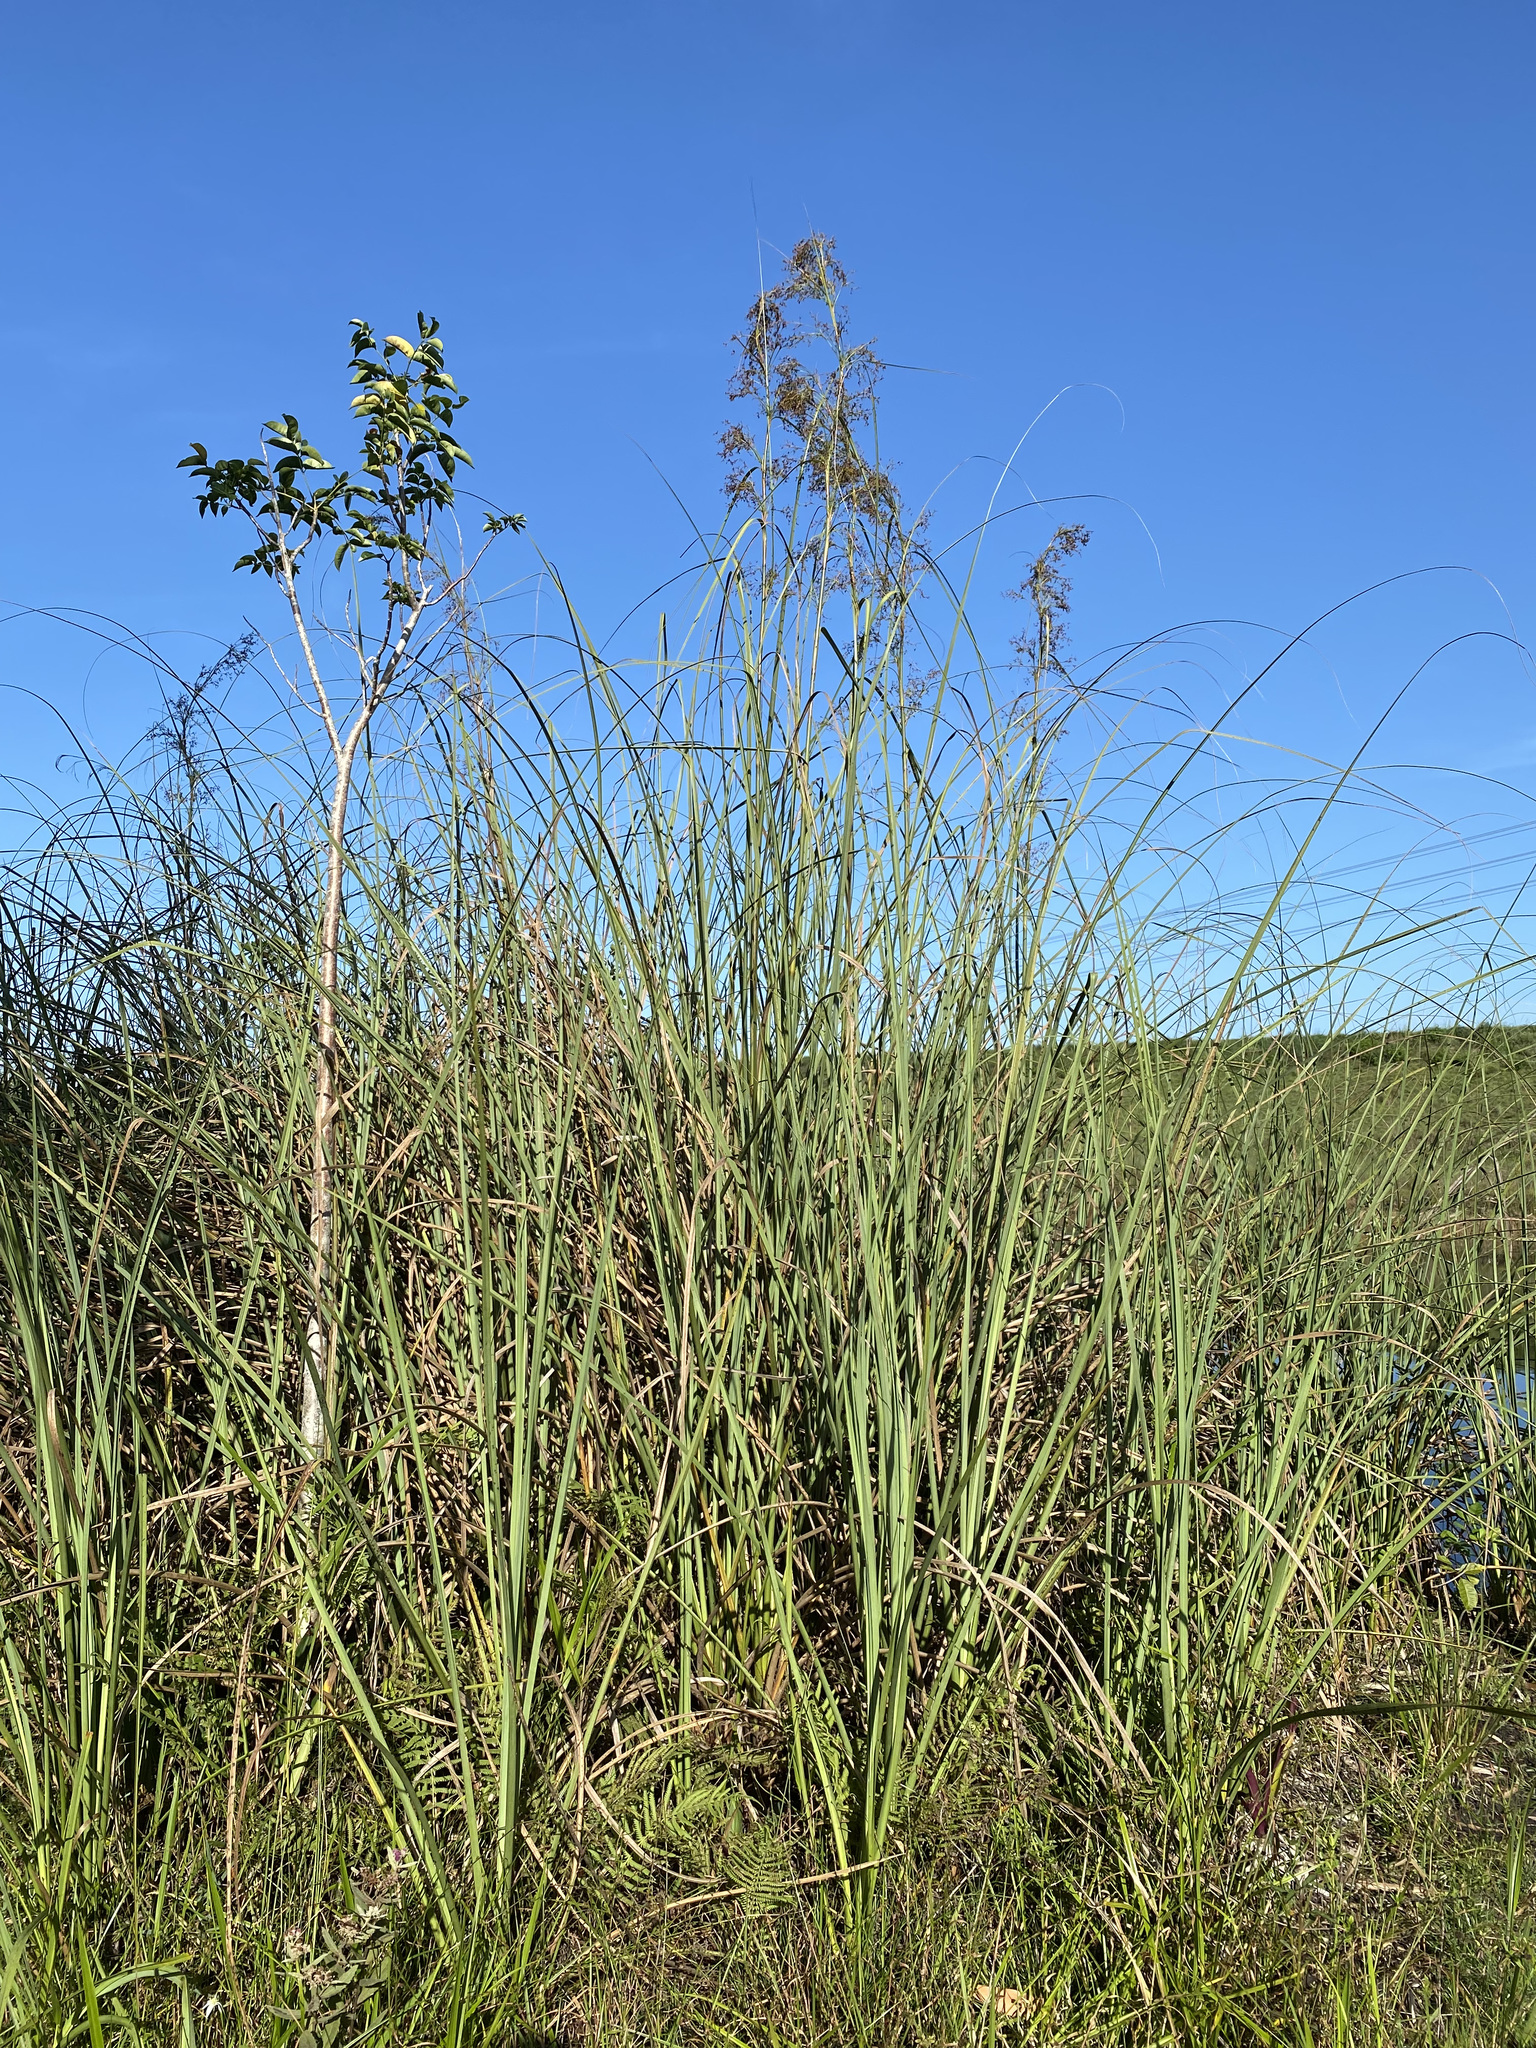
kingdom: Plantae
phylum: Tracheophyta
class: Liliopsida
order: Poales
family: Cyperaceae
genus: Cladium
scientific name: Cladium mariscus
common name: Great fen-sedge
